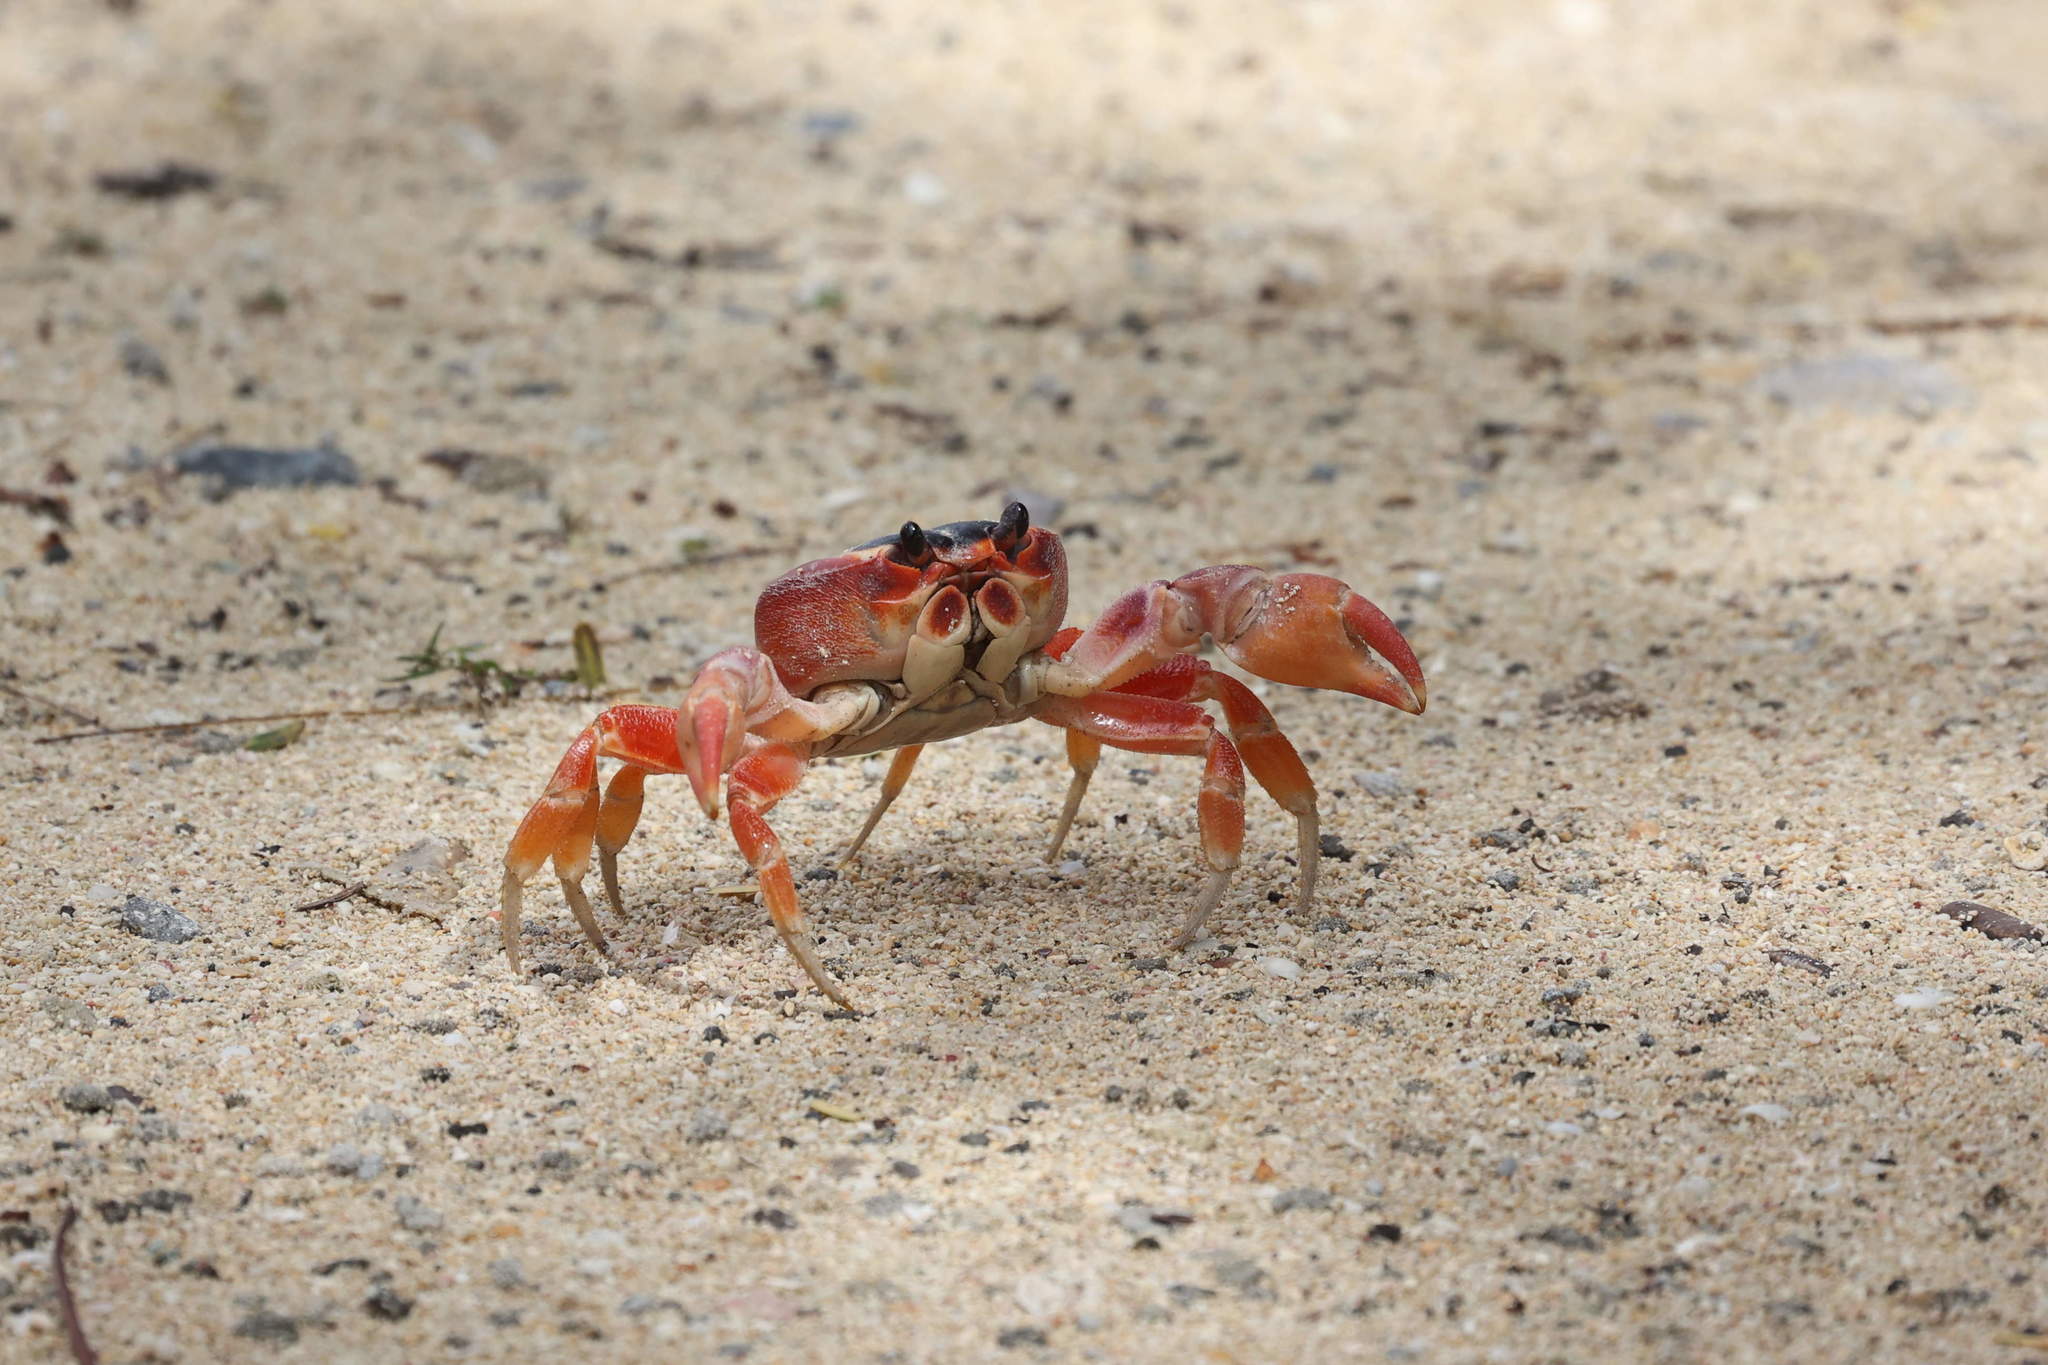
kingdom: Animalia
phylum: Arthropoda
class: Malacostraca
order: Decapoda
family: Gecarcinidae
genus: Gecarcinus
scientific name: Gecarcinus lateralis
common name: Bermuda land crab
